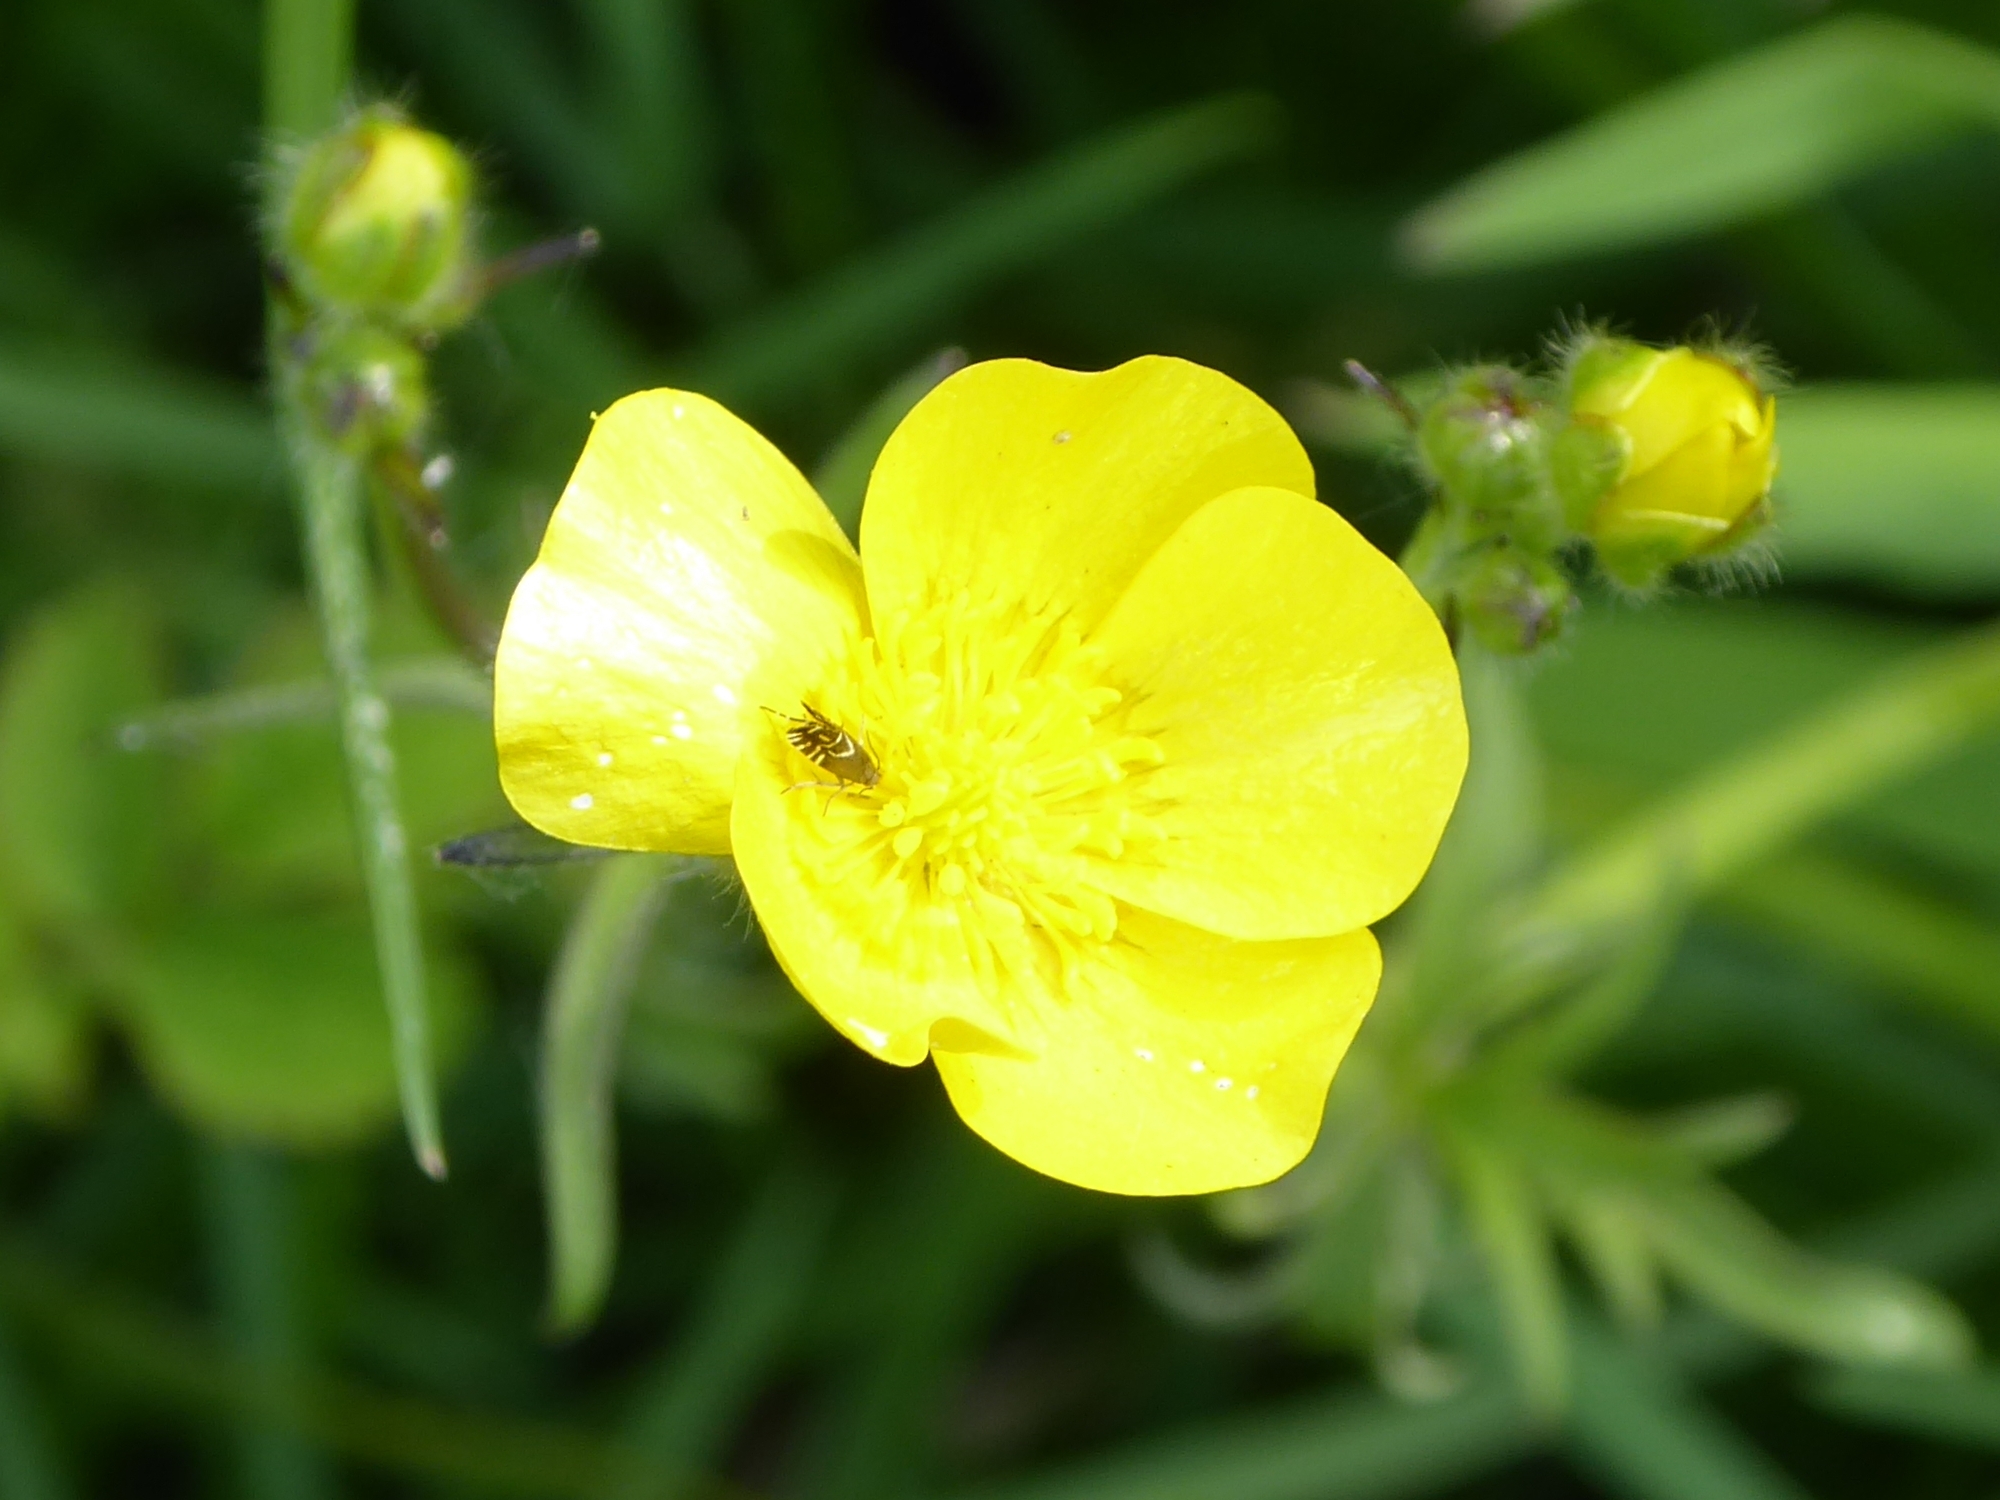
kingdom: Animalia
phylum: Arthropoda
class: Insecta
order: Lepidoptera
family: Glyphipterigidae
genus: Glyphipterix
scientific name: Glyphipterix simpliciella
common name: Cocksfoot moth
